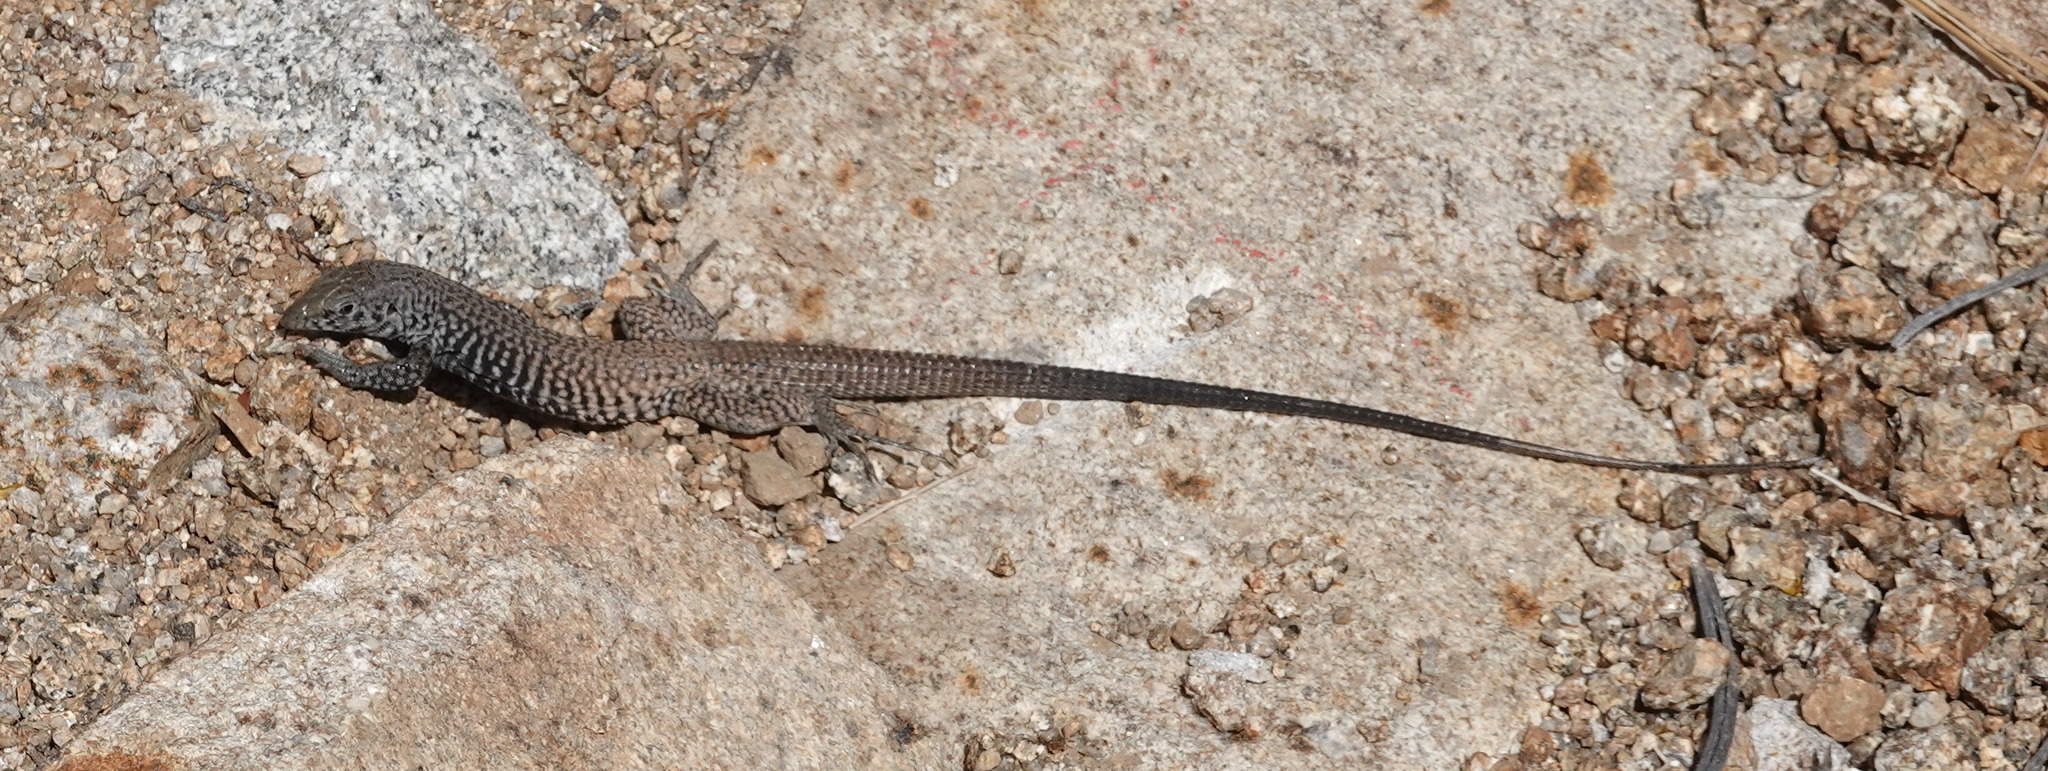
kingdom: Animalia
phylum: Chordata
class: Squamata
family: Teiidae
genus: Aspidoscelis
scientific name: Aspidoscelis tigris
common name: Tiger whiptail
